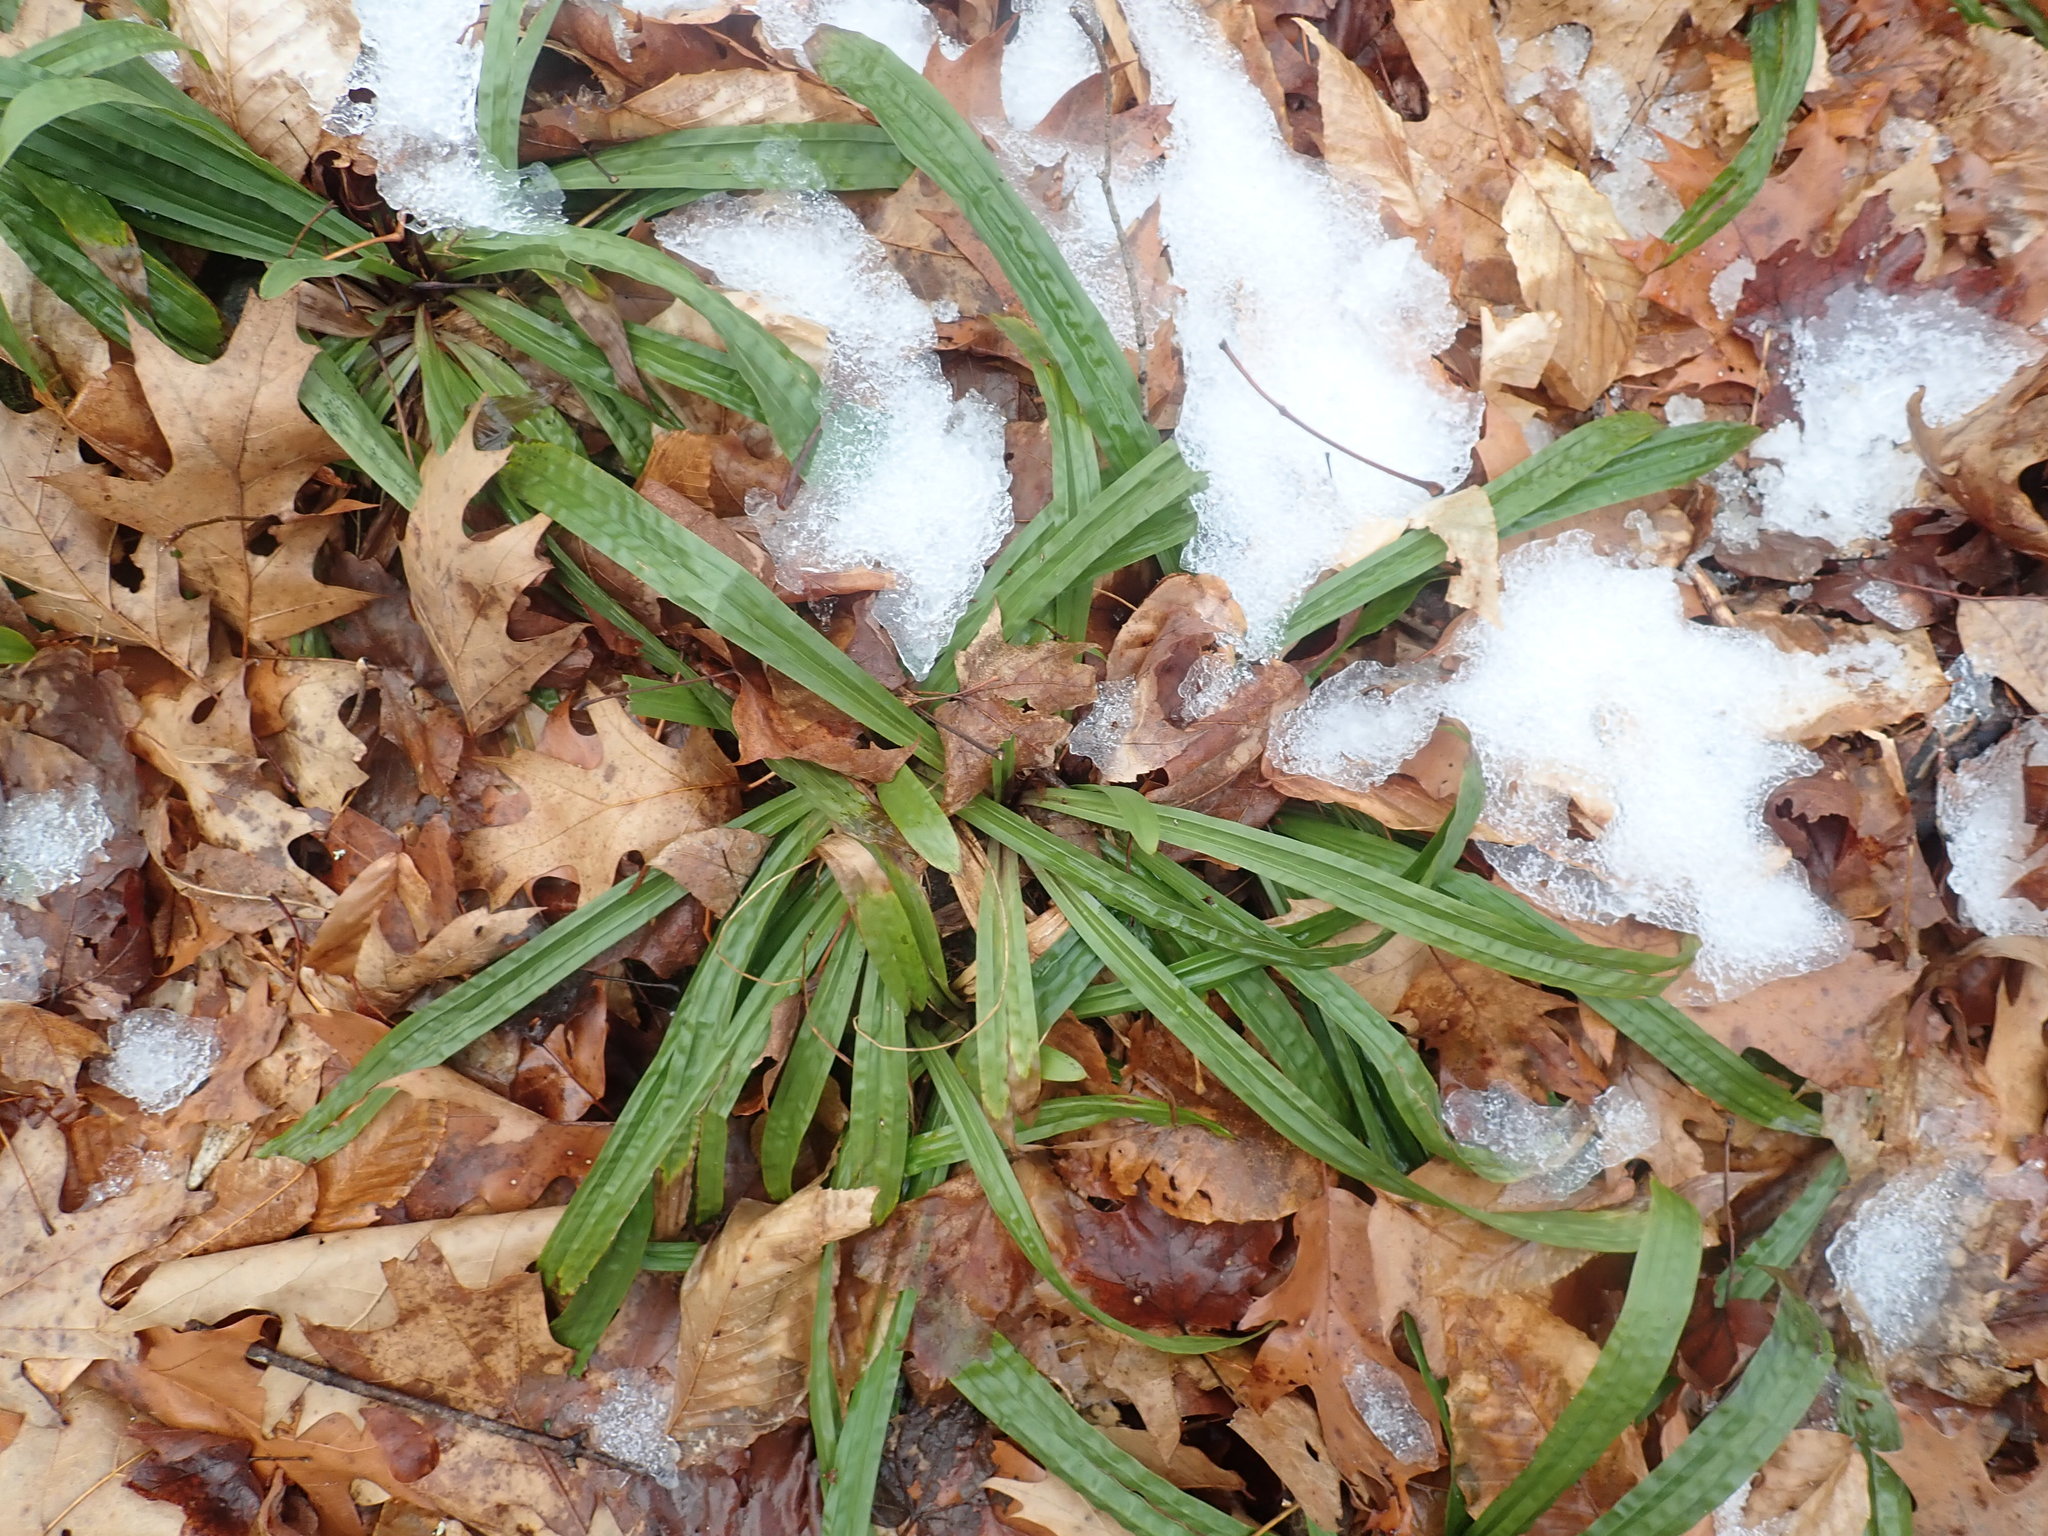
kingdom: Plantae
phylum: Tracheophyta
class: Liliopsida
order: Poales
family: Cyperaceae
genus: Carex
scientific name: Carex plantaginea
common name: Plantain-leaved sedge
